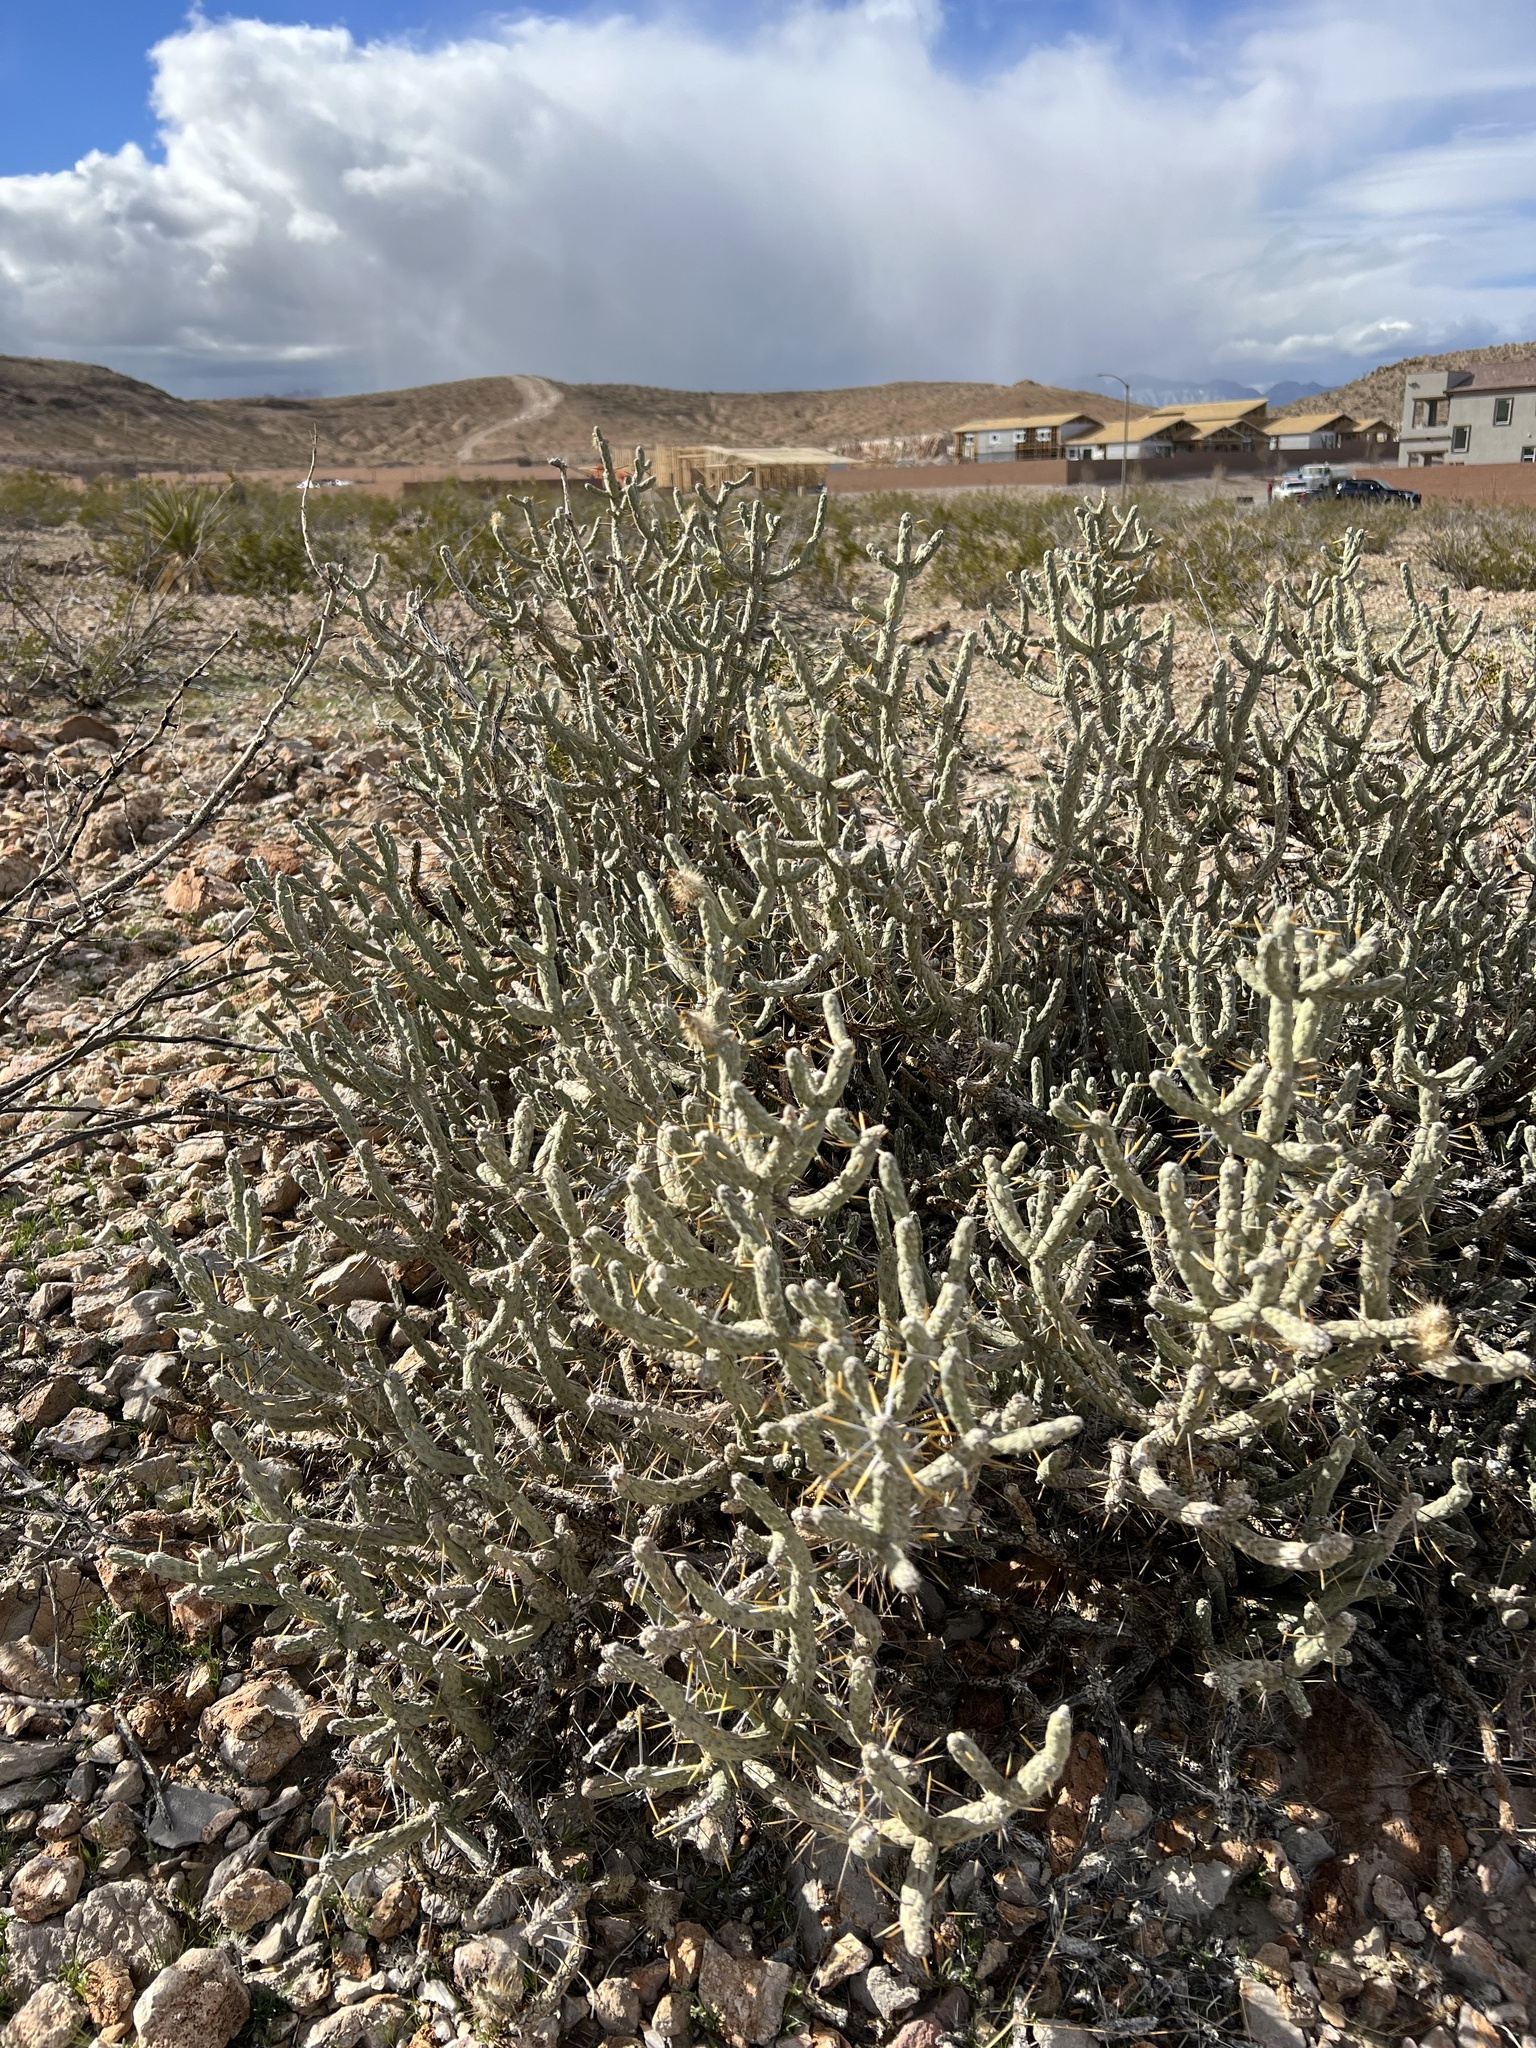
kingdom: Plantae
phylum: Tracheophyta
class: Magnoliopsida
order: Caryophyllales
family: Cactaceae
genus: Cylindropuntia
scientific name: Cylindropuntia ramosissima
